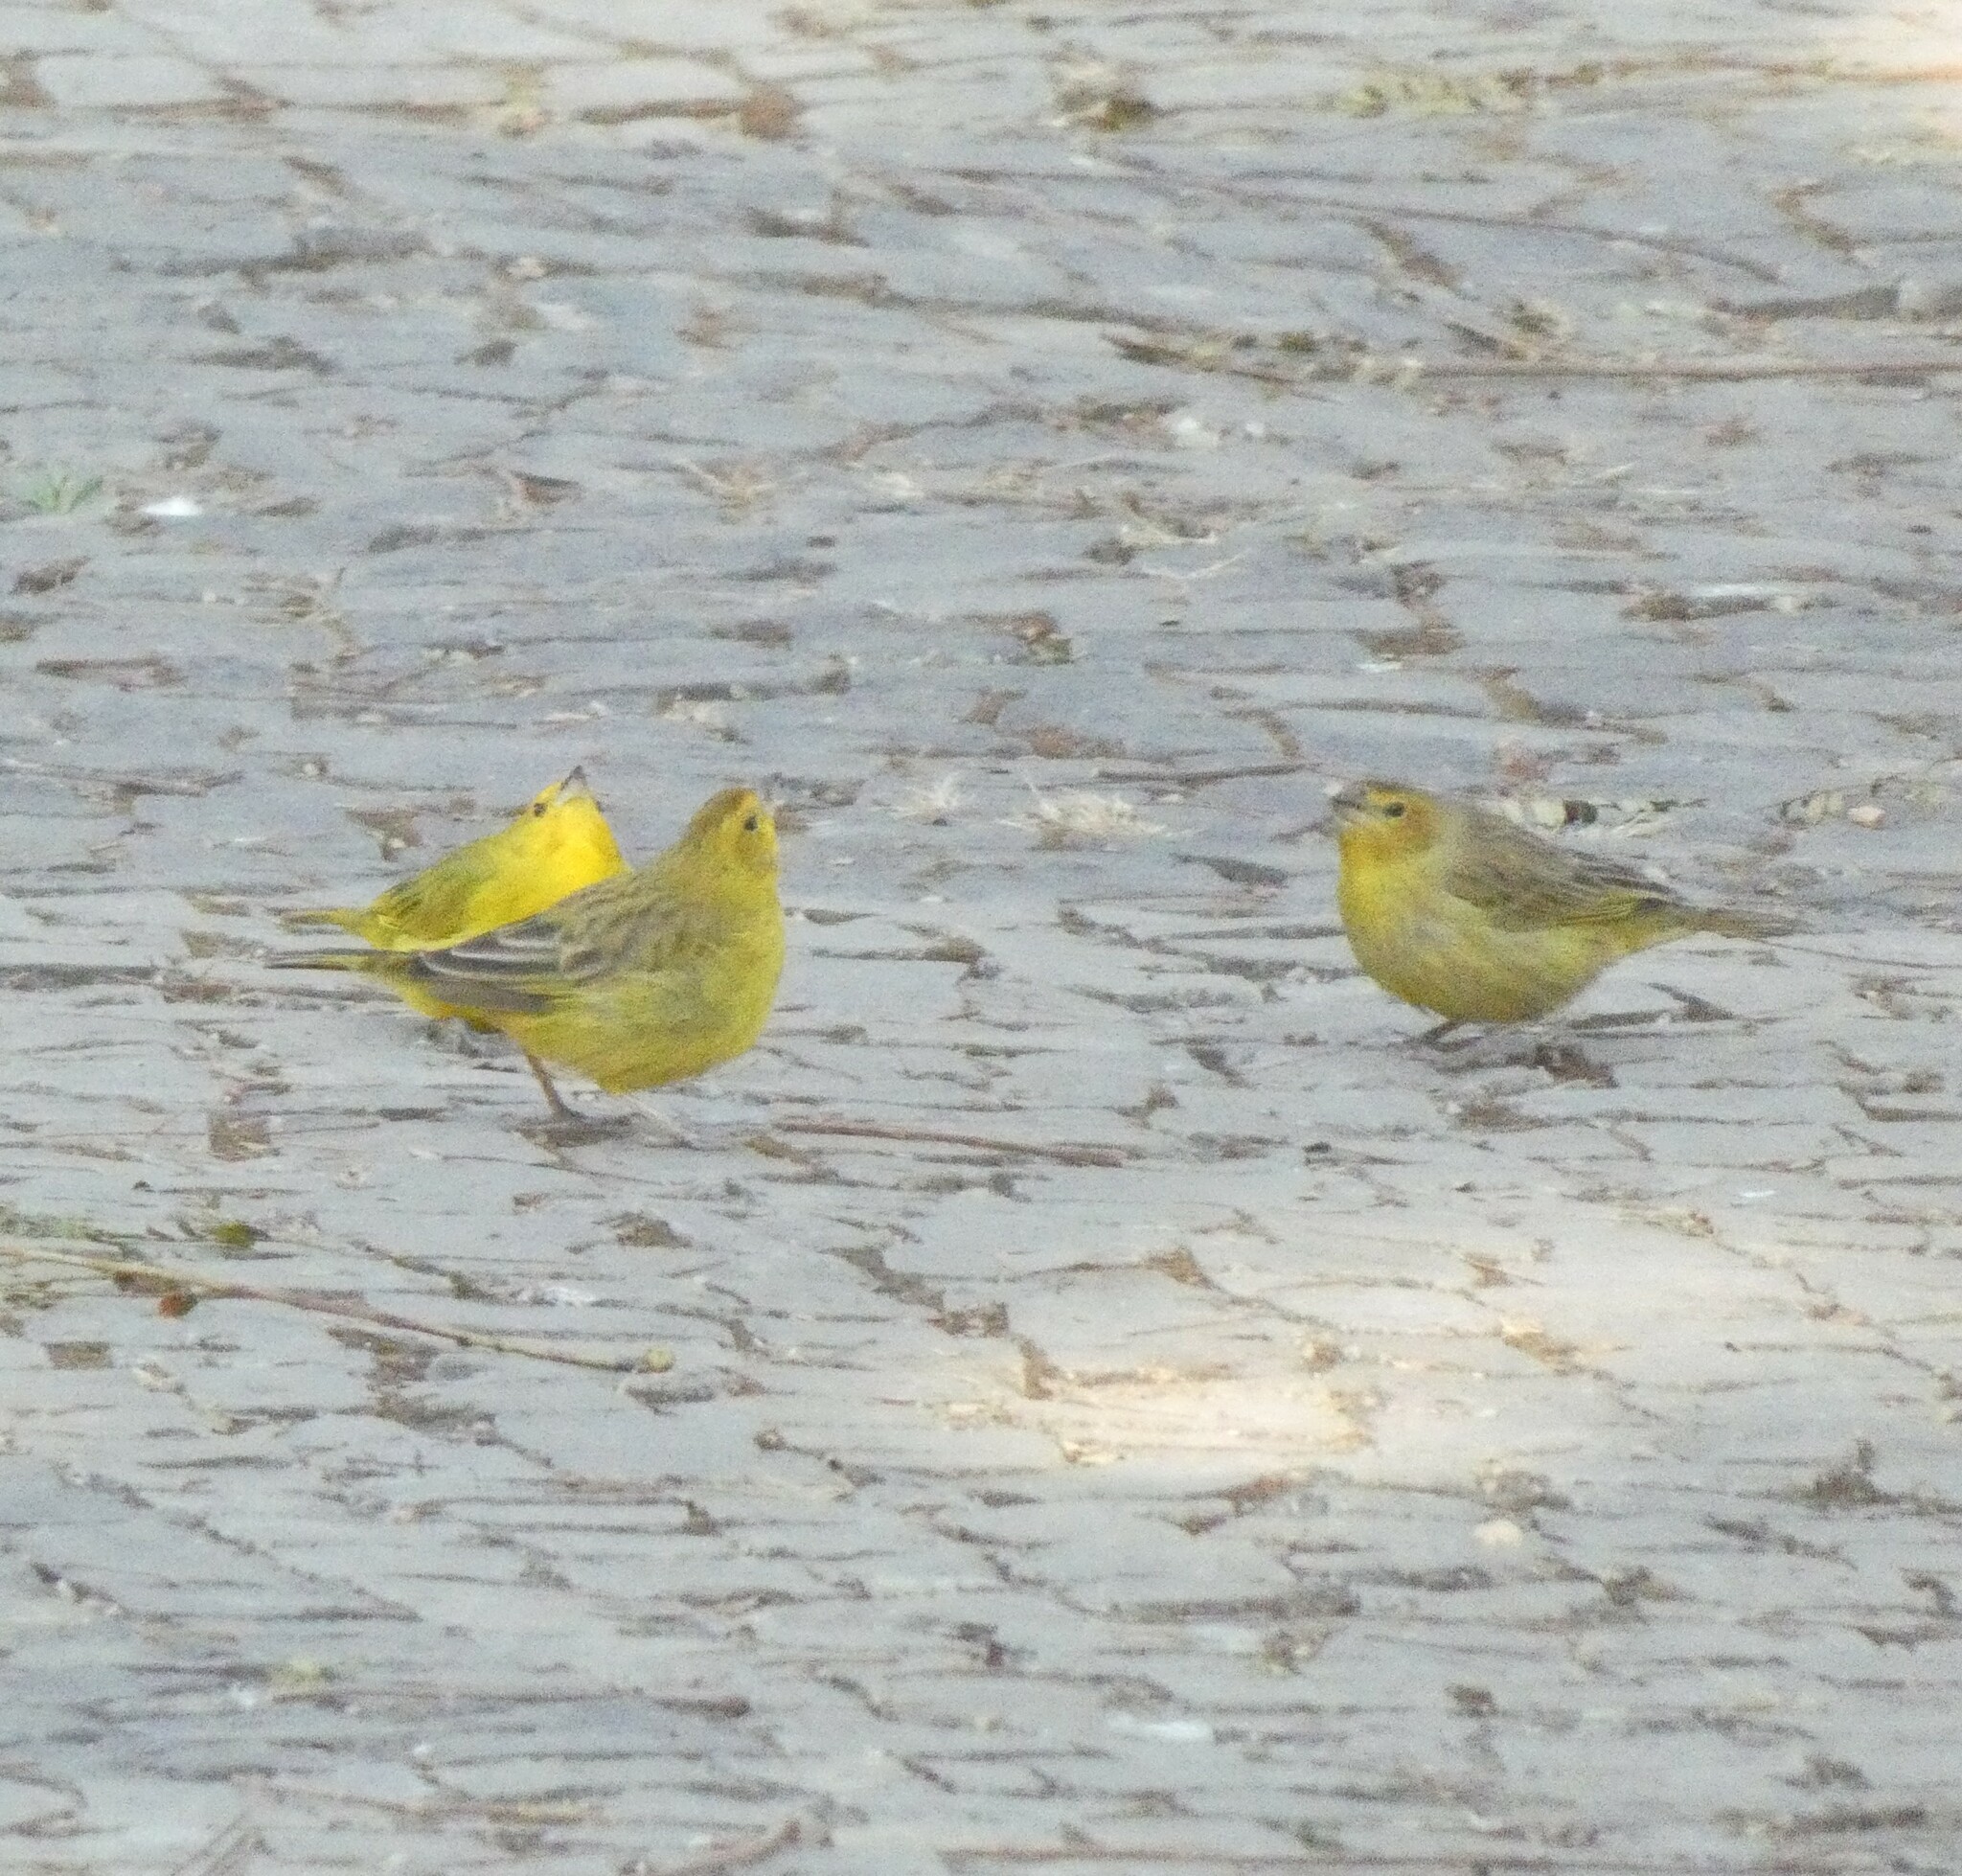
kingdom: Animalia
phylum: Chordata
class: Aves
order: Passeriformes
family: Thraupidae
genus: Sicalis
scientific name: Sicalis flaveola
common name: Saffron finch
